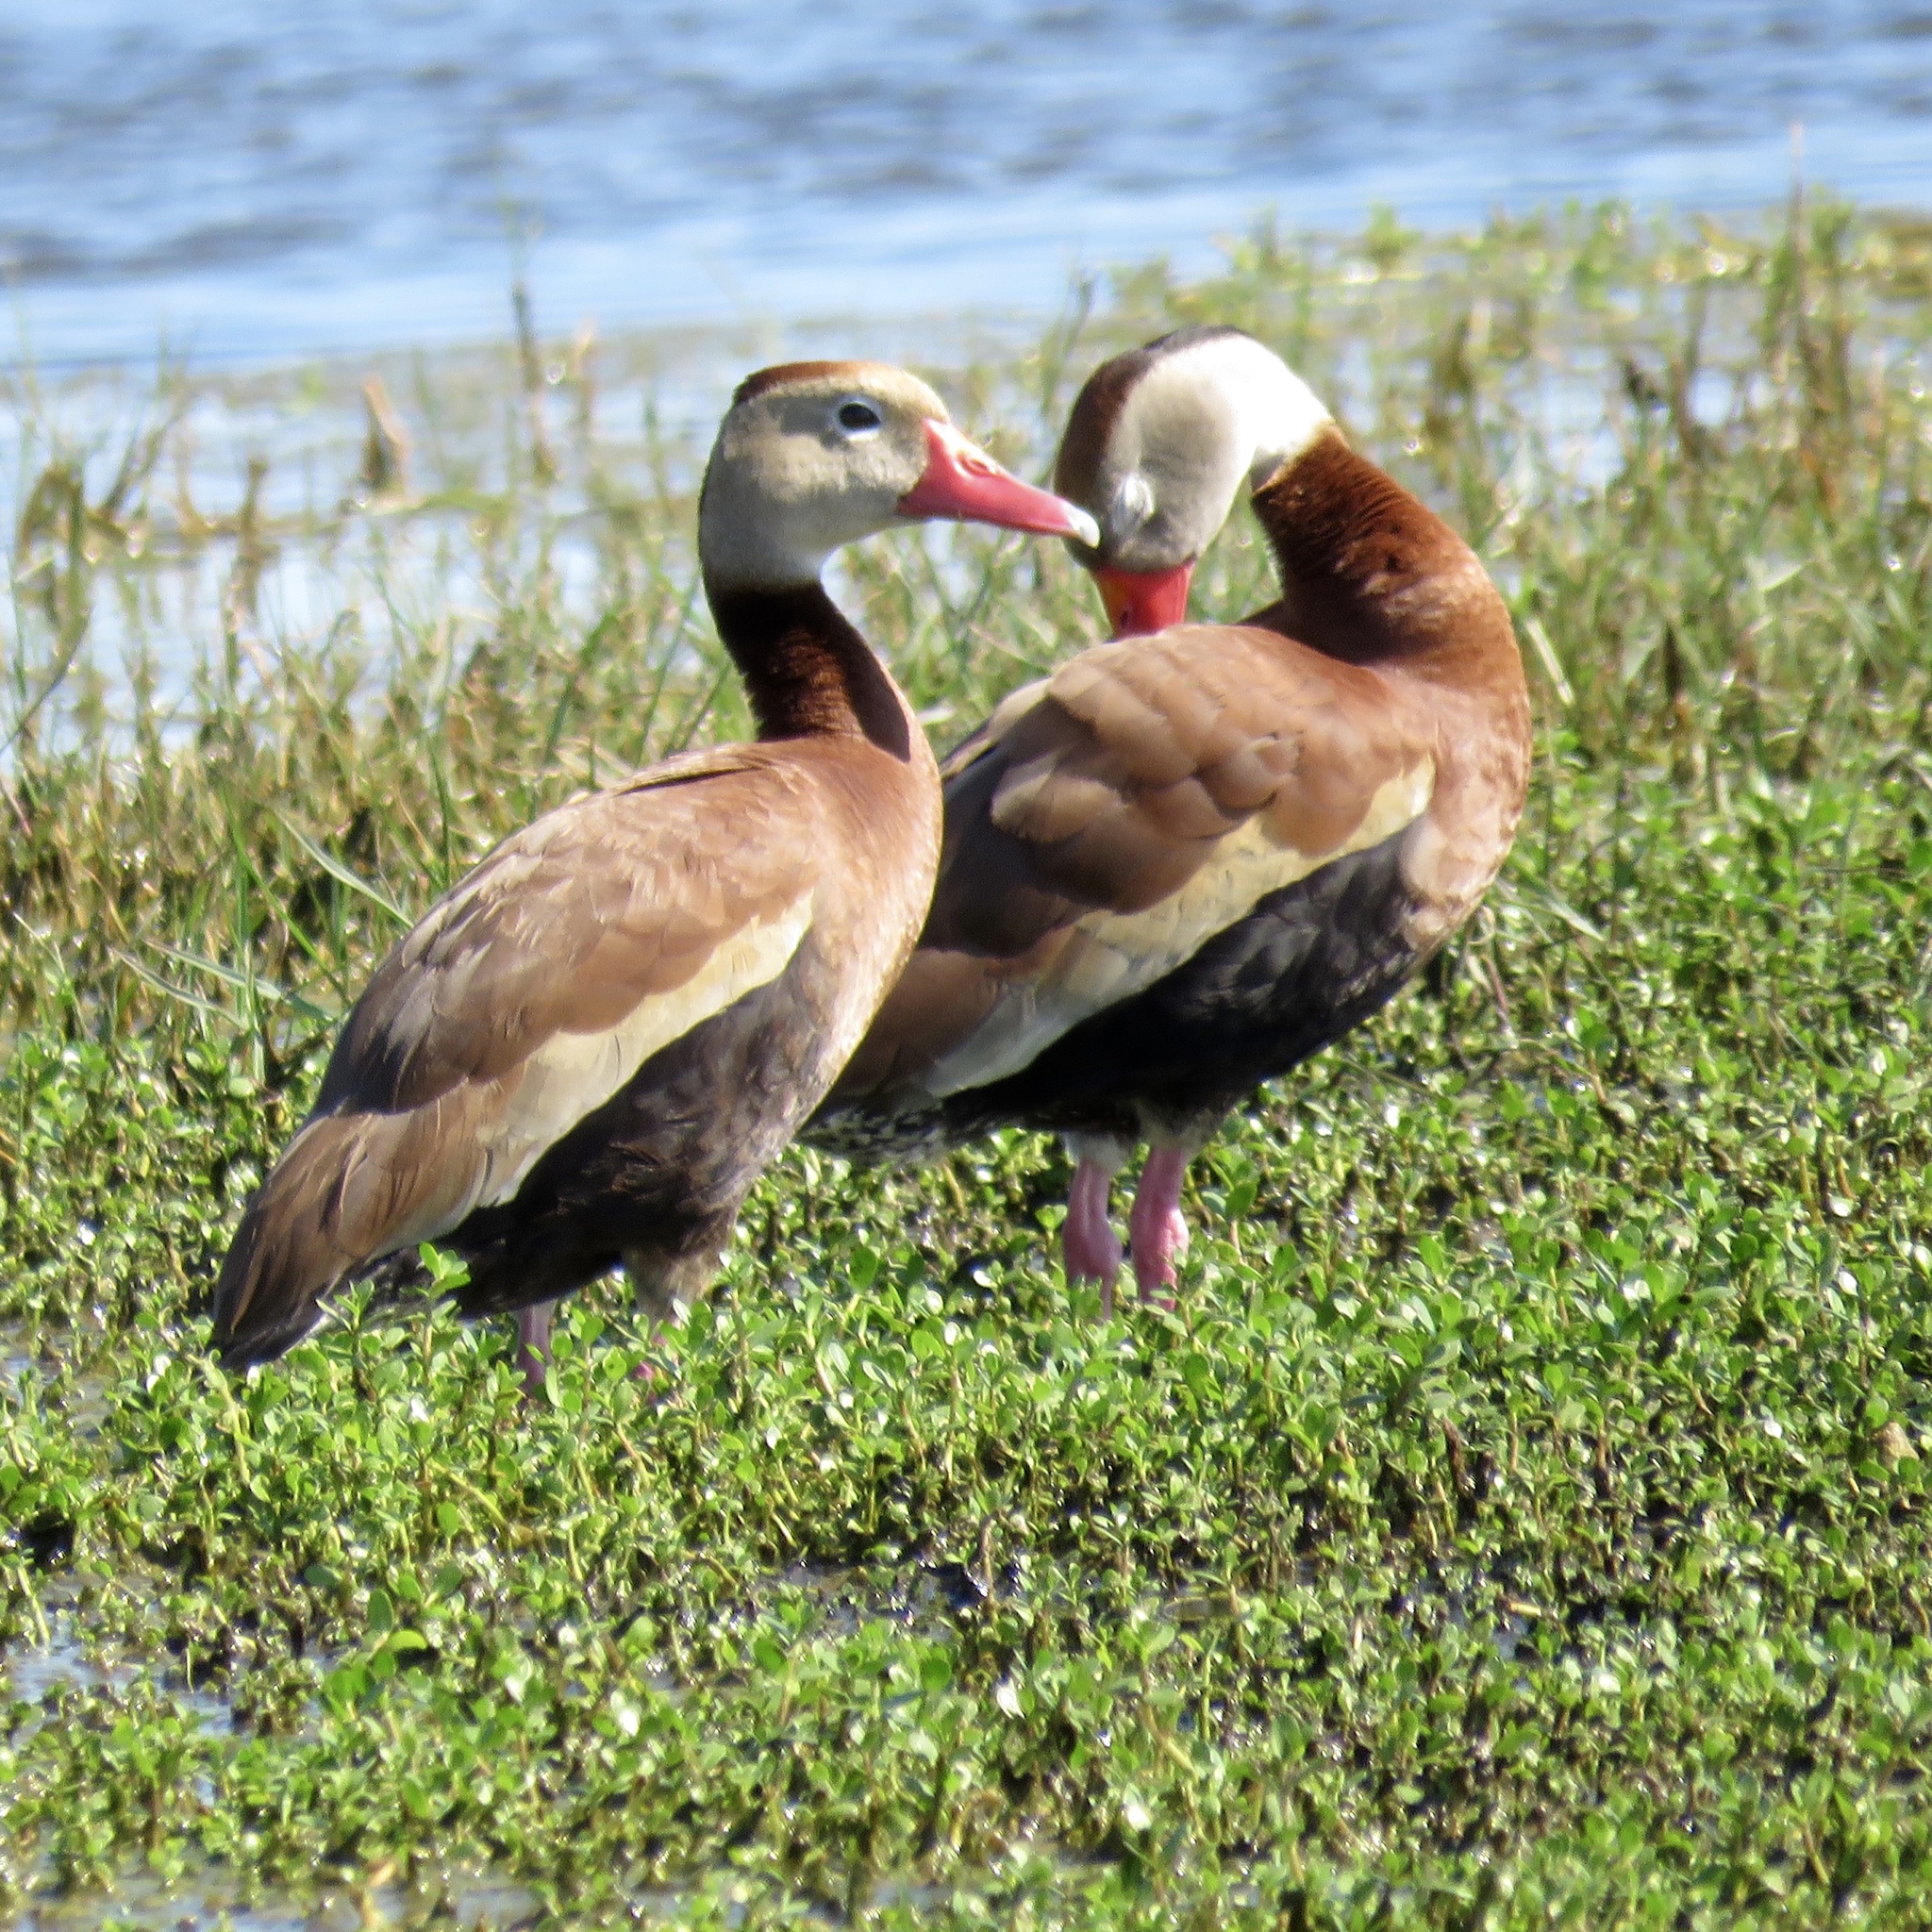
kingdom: Animalia
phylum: Chordata
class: Aves
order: Anseriformes
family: Anatidae
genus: Dendrocygna
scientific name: Dendrocygna autumnalis
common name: Black-bellied whistling duck
